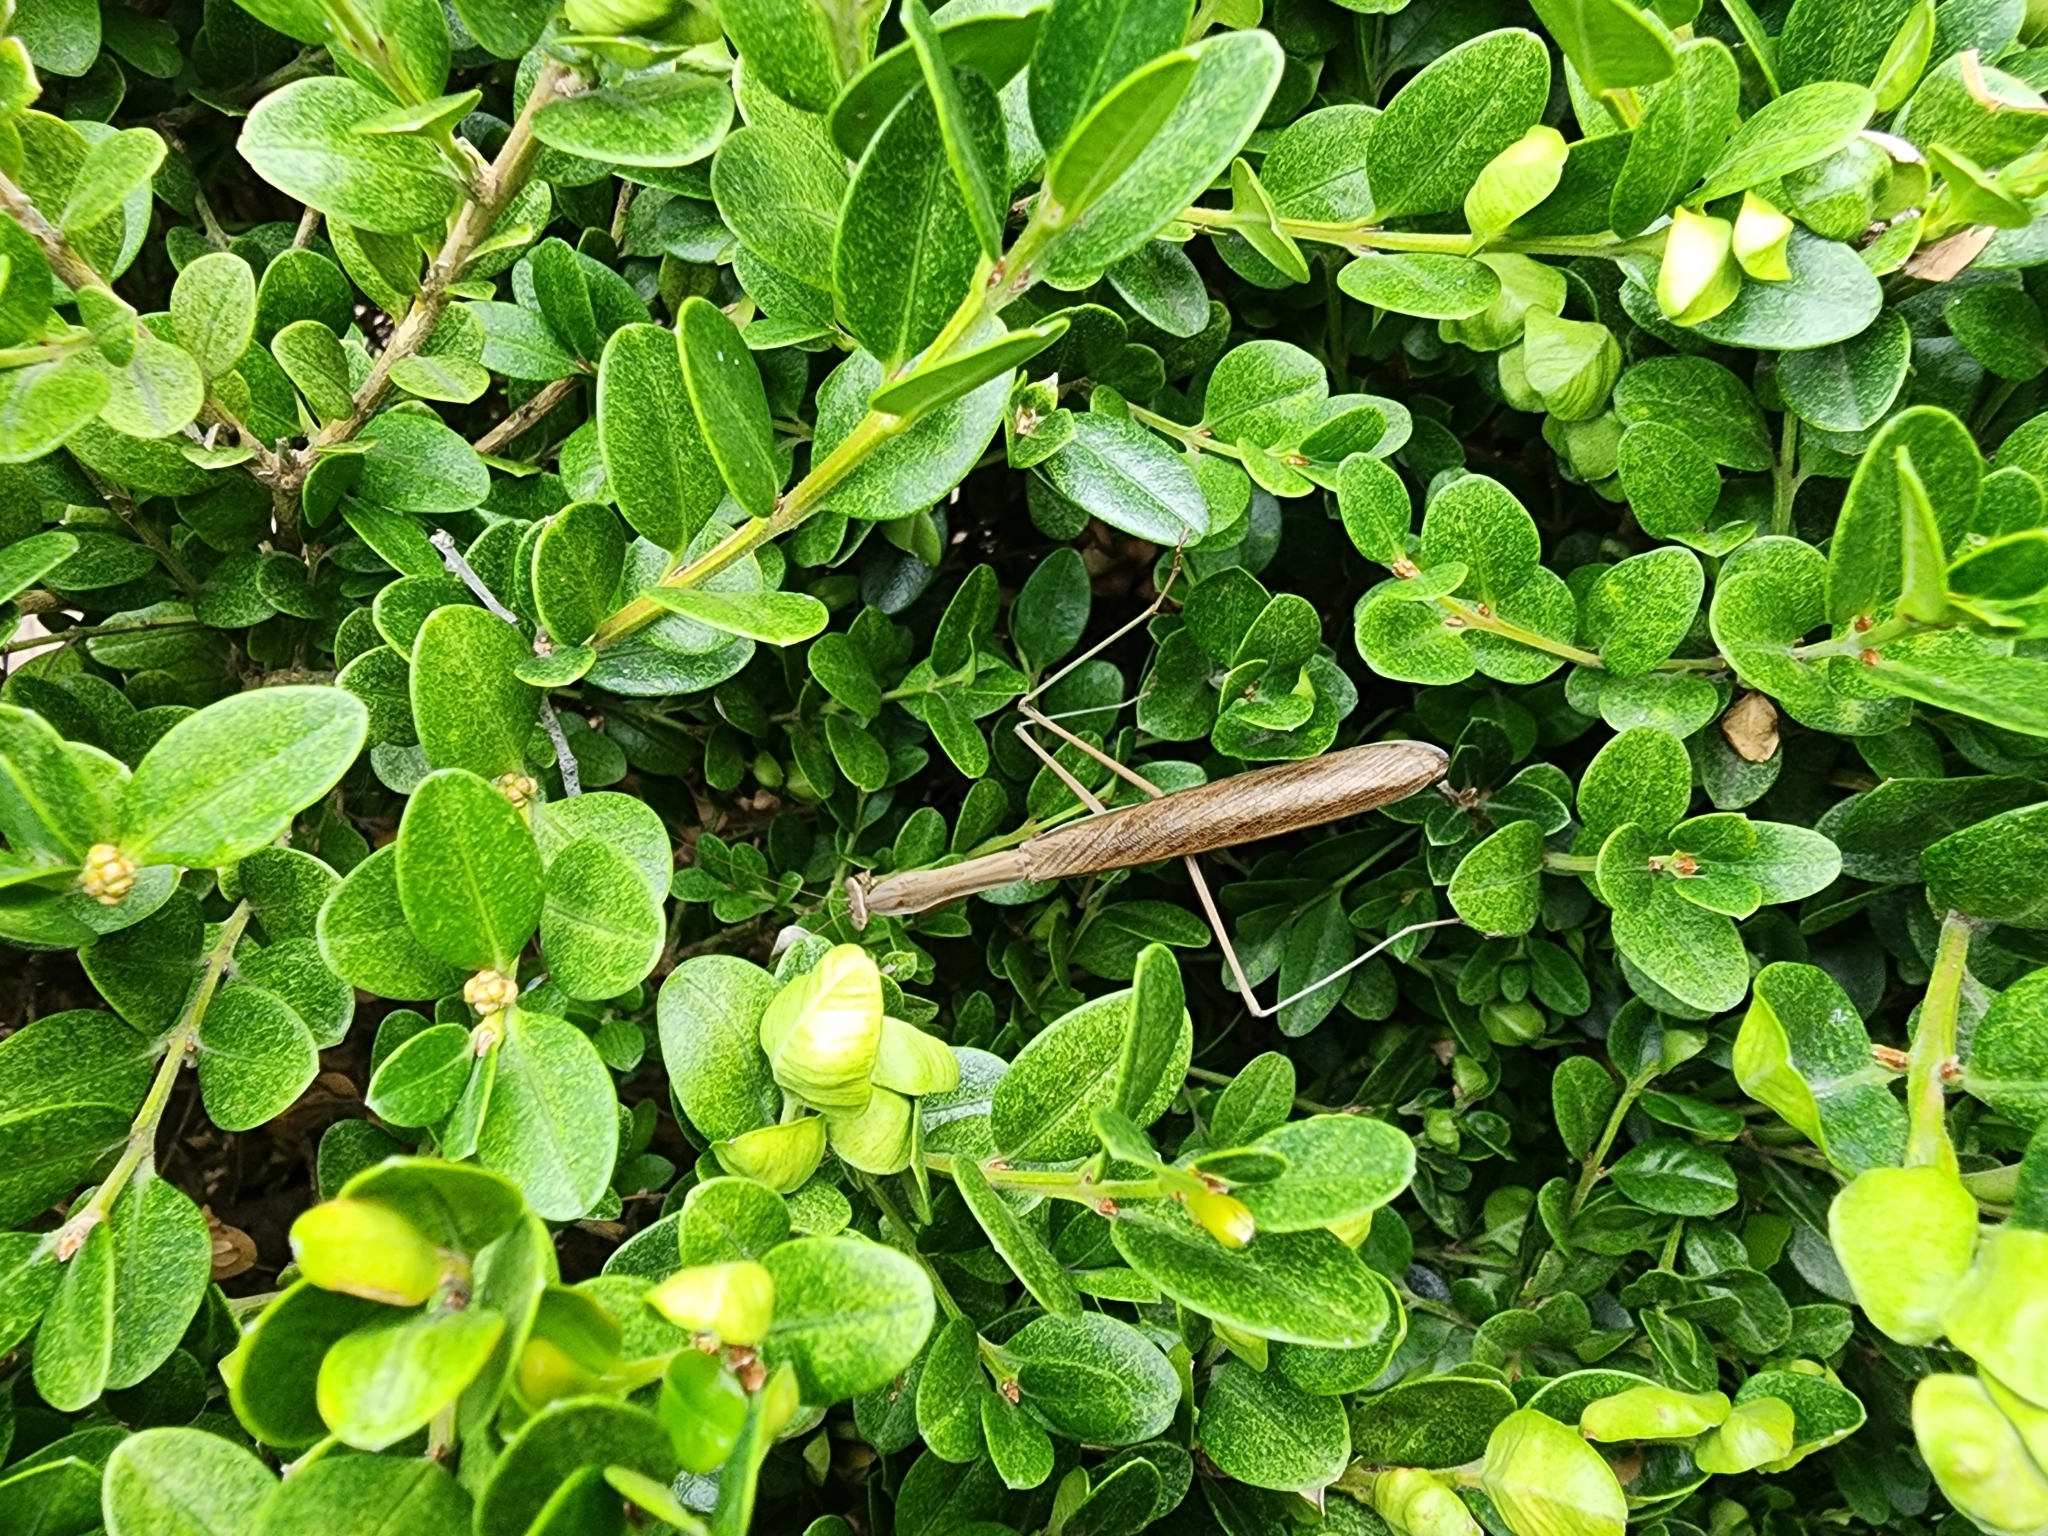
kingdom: Animalia
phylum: Arthropoda
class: Insecta
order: Mantodea
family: Mantidae
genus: Tenodera
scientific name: Tenodera sinensis
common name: Chinese mantis
